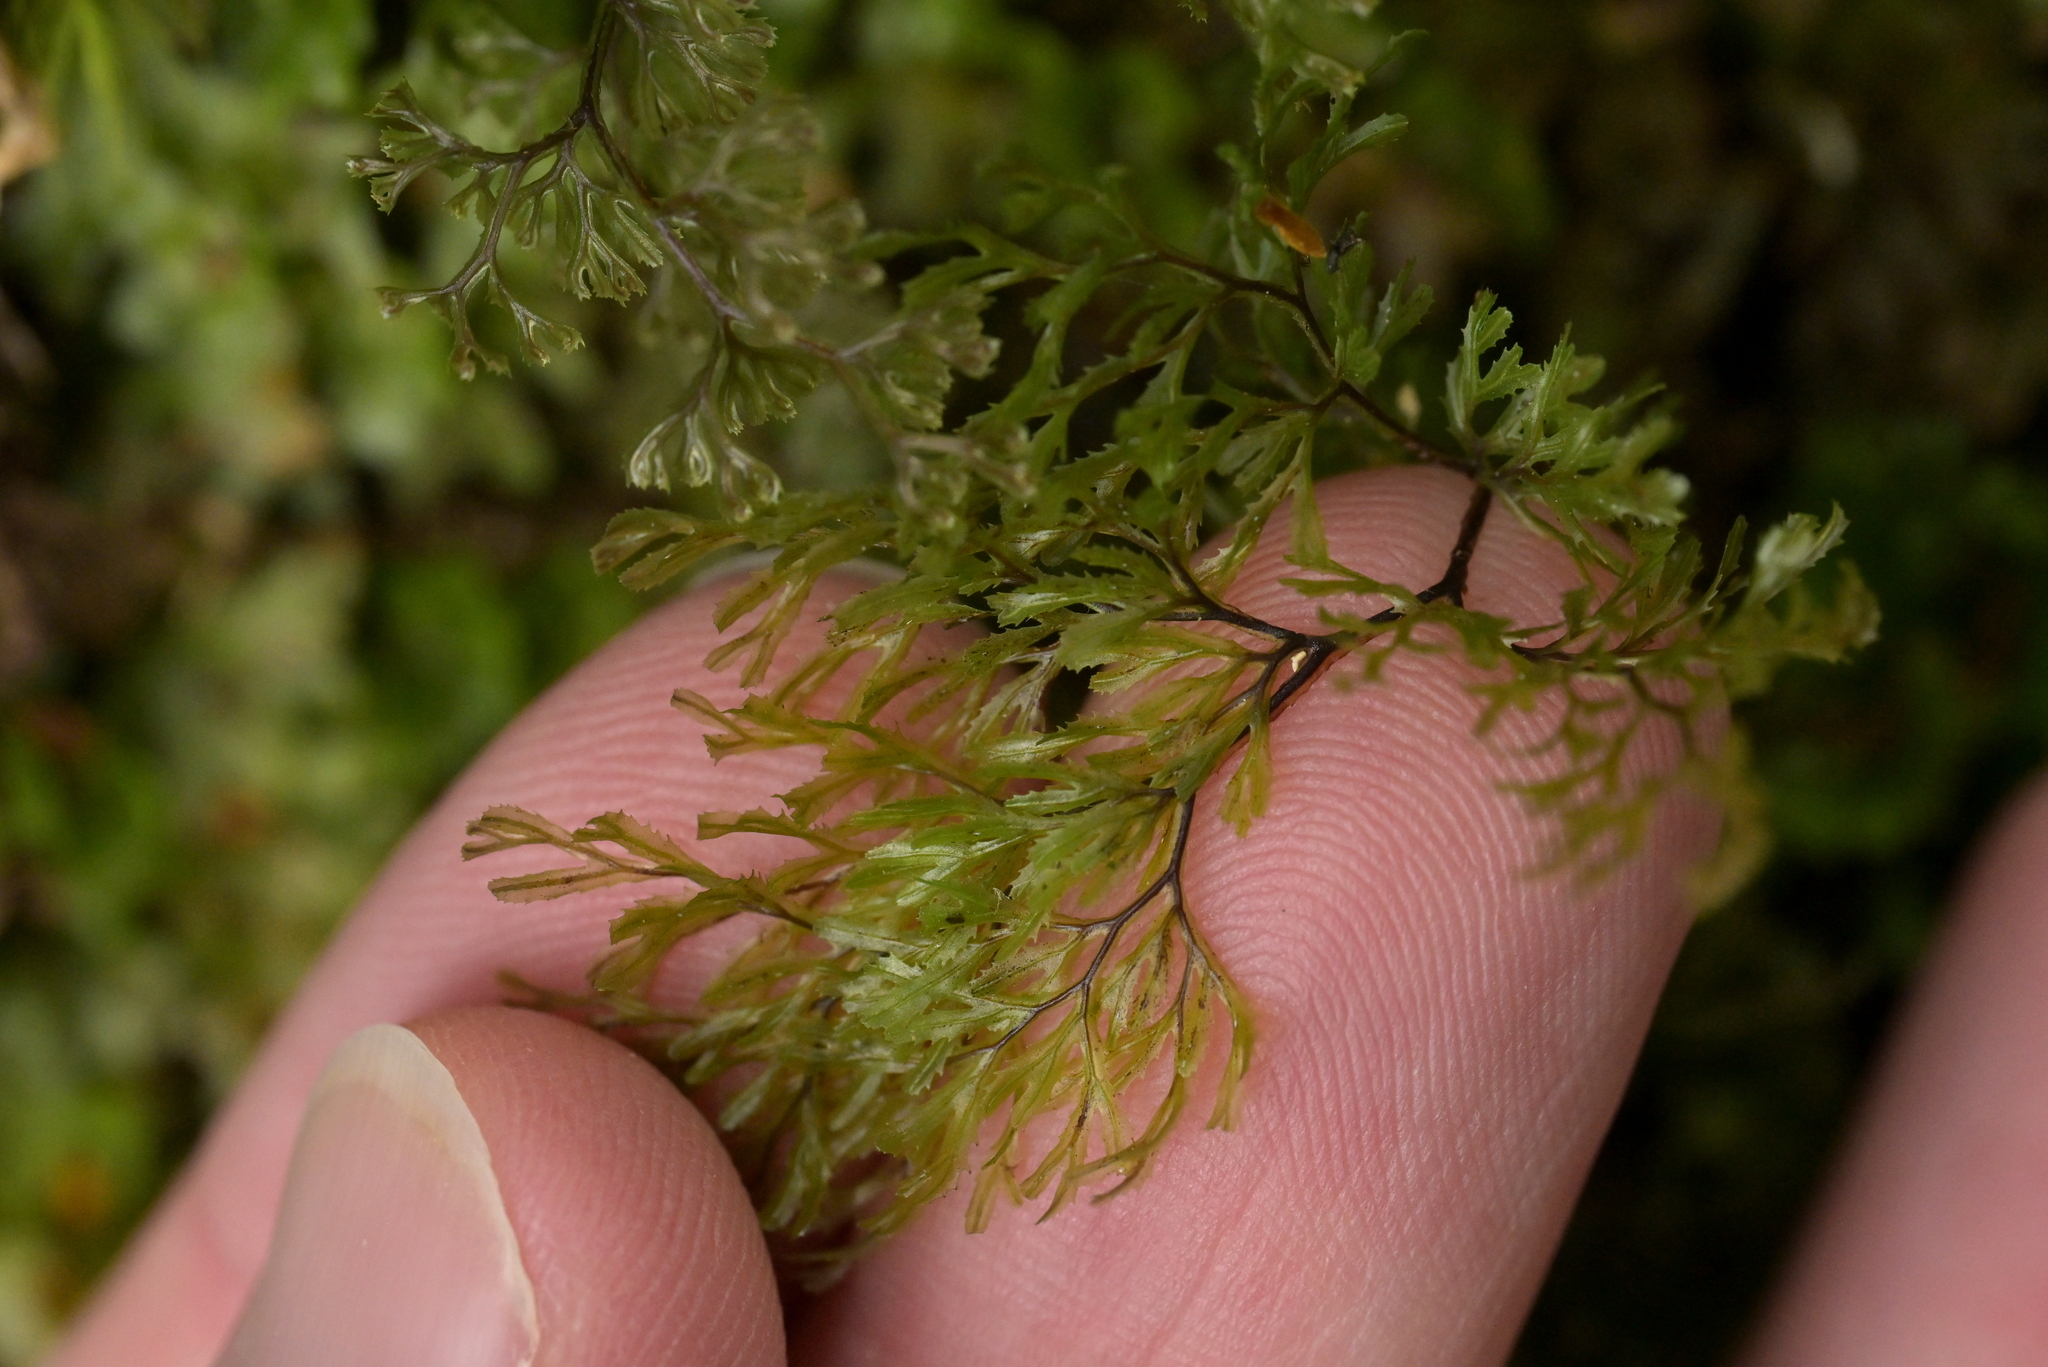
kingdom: Plantae
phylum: Tracheophyta
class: Polypodiopsida
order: Hymenophyllales
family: Hymenophyllaceae
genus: Hymenophyllum
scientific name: Hymenophyllum multifidum
